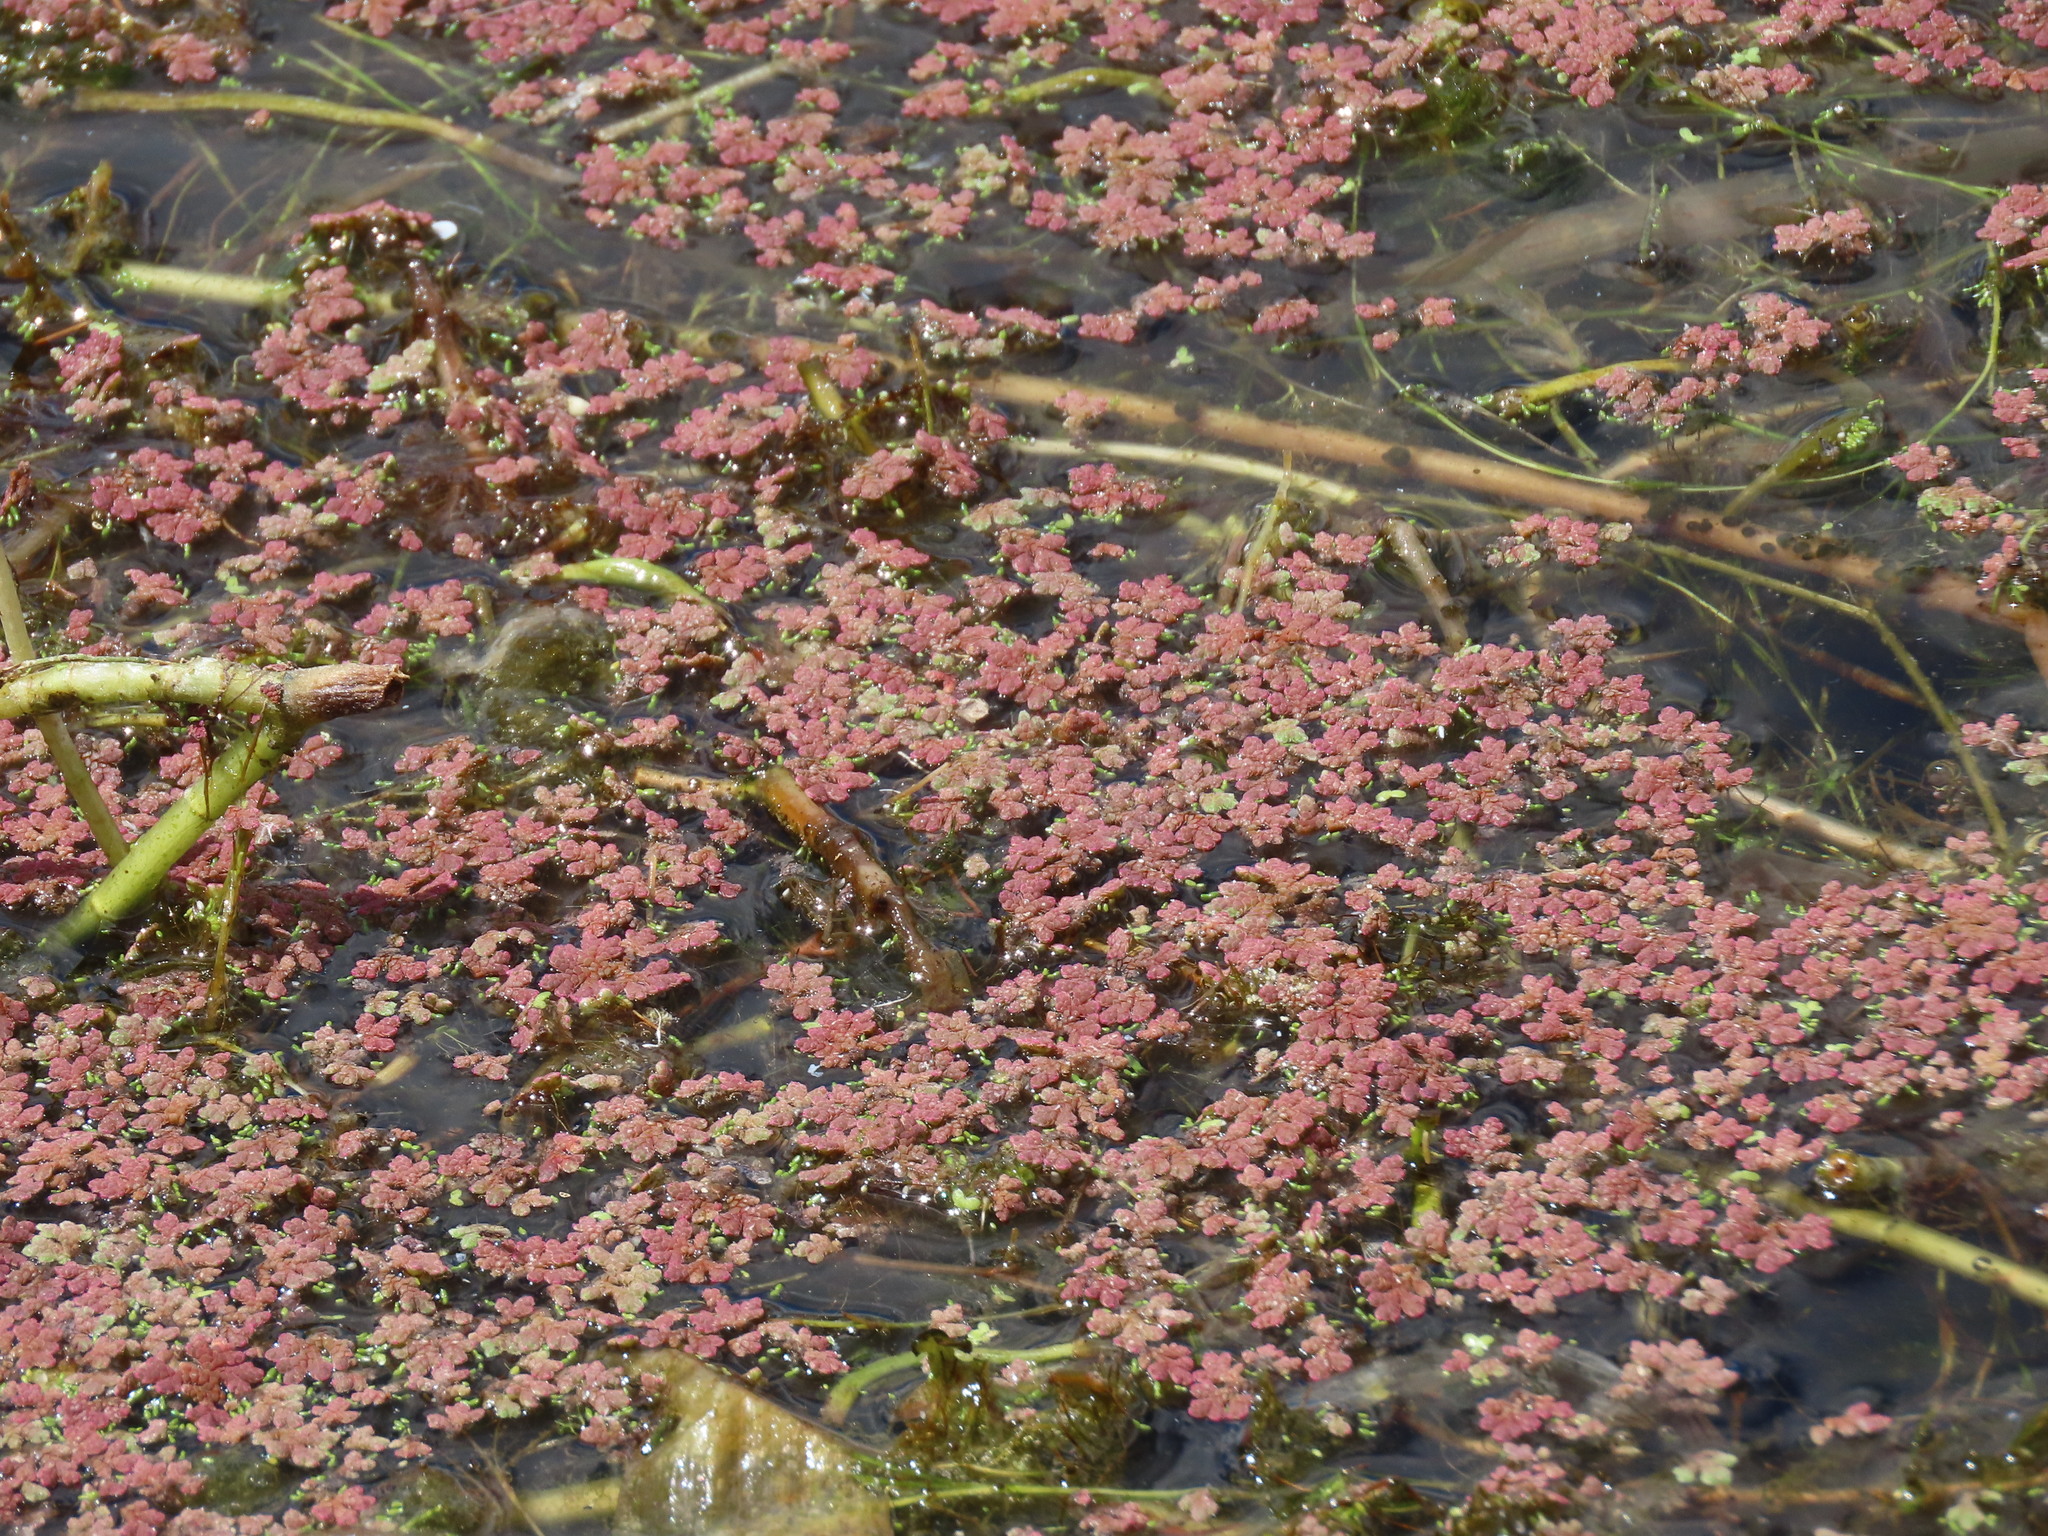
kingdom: Plantae
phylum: Tracheophyta
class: Polypodiopsida
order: Salviniales
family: Salviniaceae
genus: Azolla
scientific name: Azolla rubra
